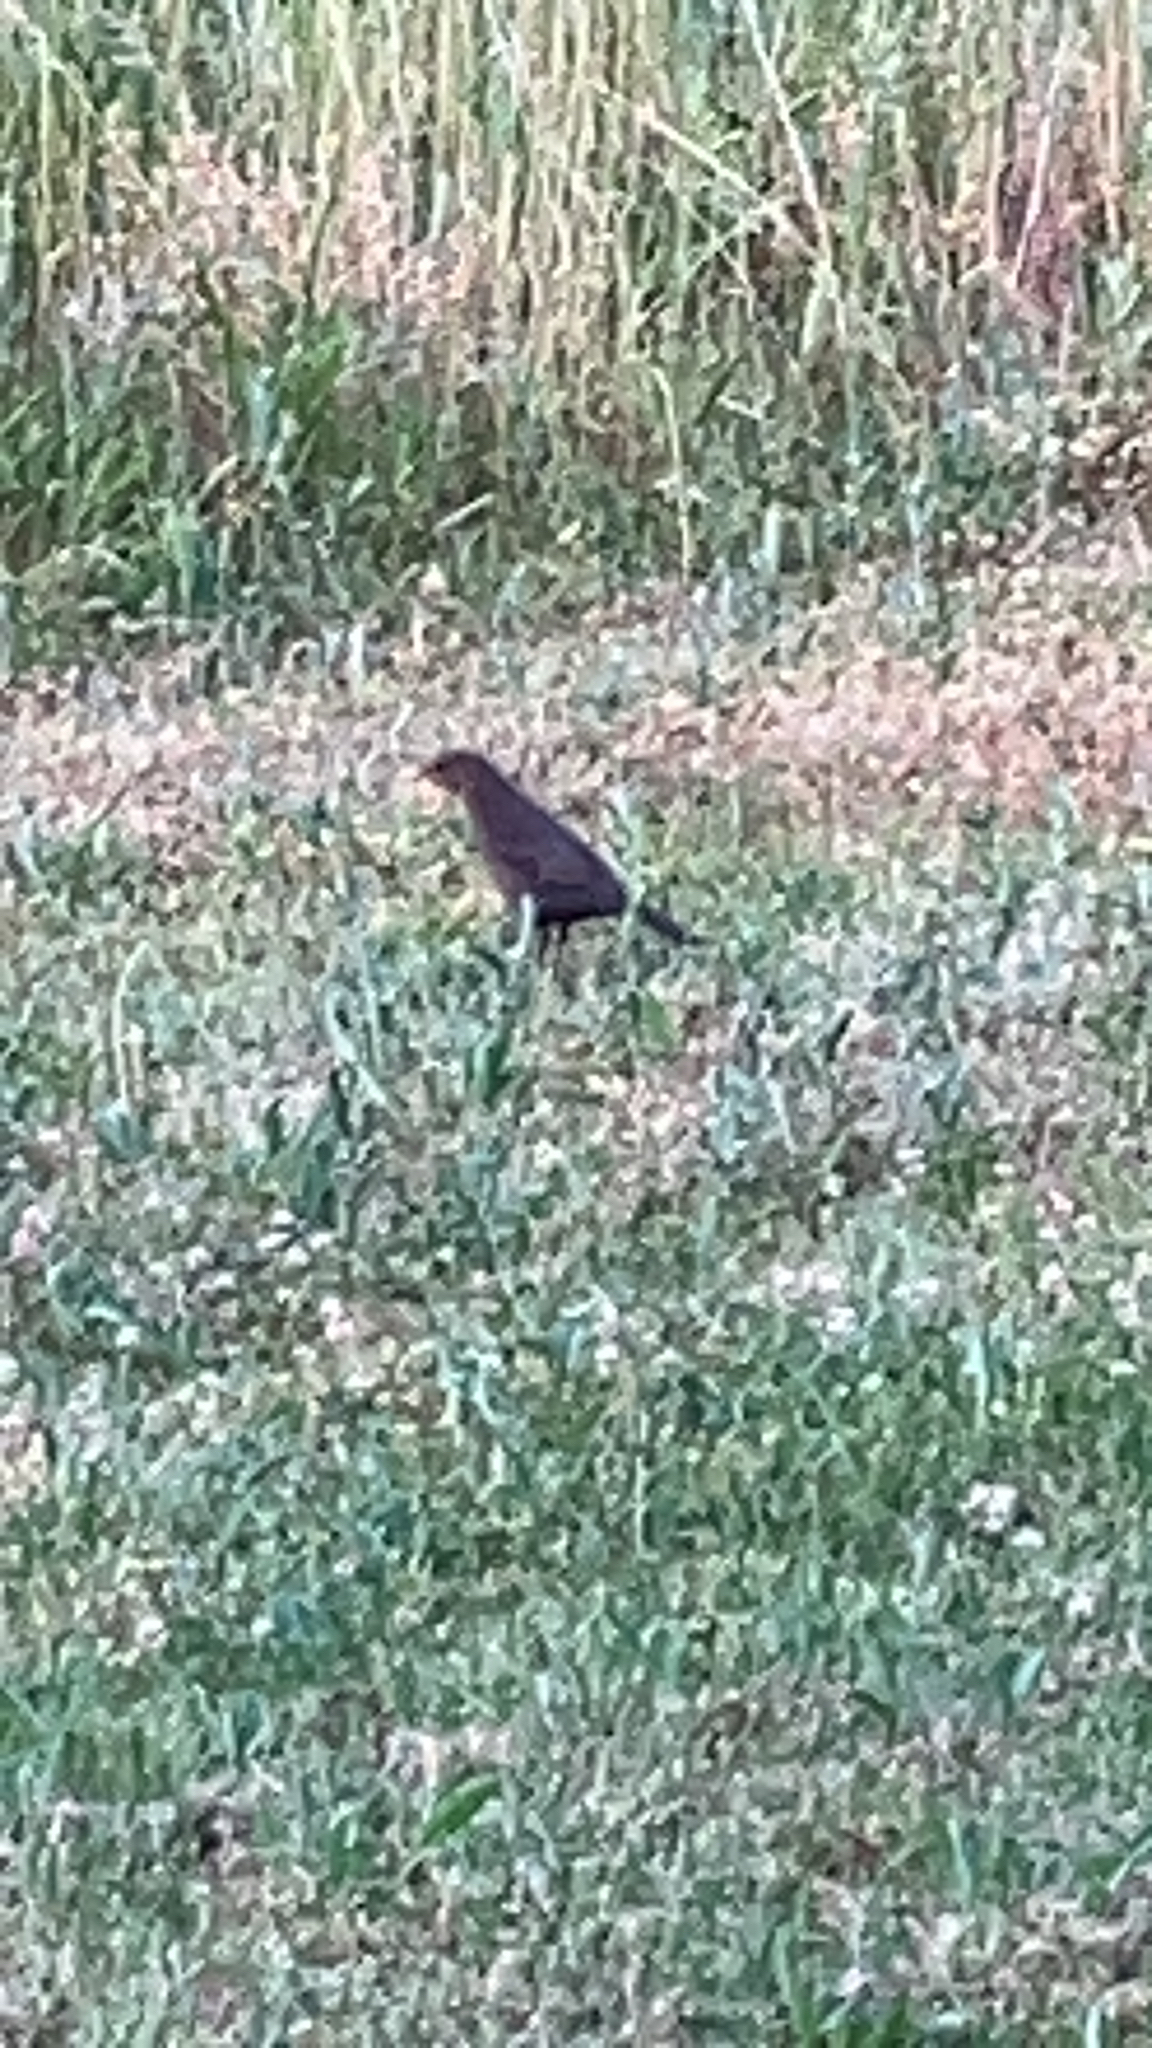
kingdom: Animalia
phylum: Chordata
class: Aves
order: Passeriformes
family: Turdidae
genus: Turdus
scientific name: Turdus merula
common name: Common blackbird
